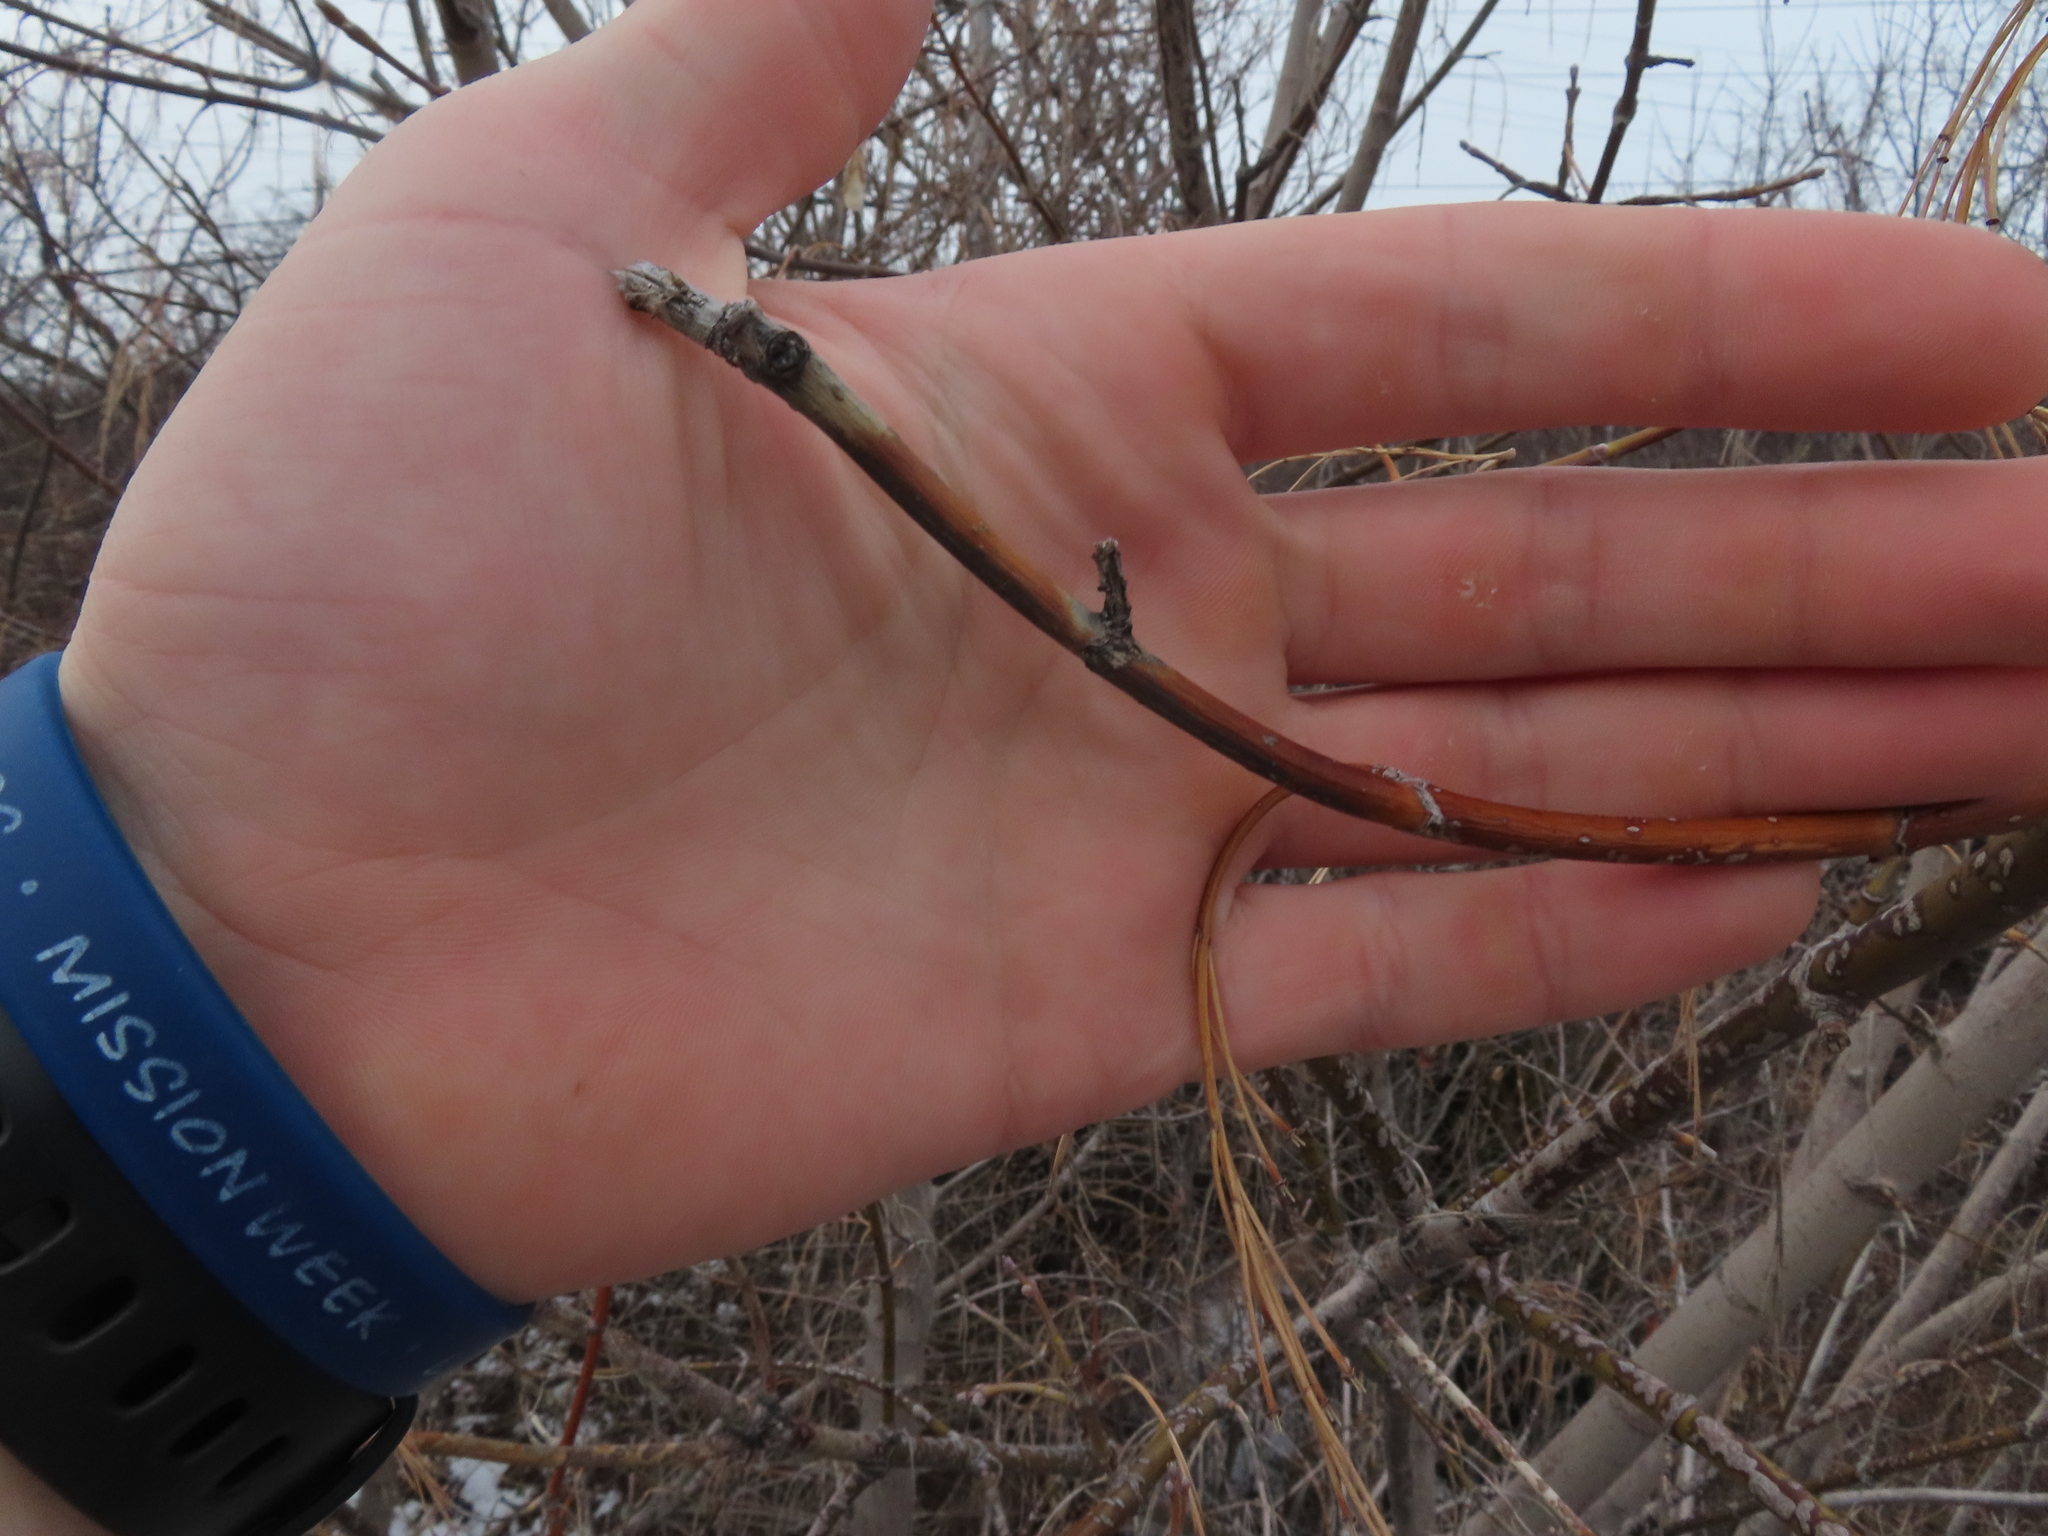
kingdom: Plantae
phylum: Tracheophyta
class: Magnoliopsida
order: Sapindales
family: Sapindaceae
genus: Acer
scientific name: Acer negundo
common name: Ashleaf maple
